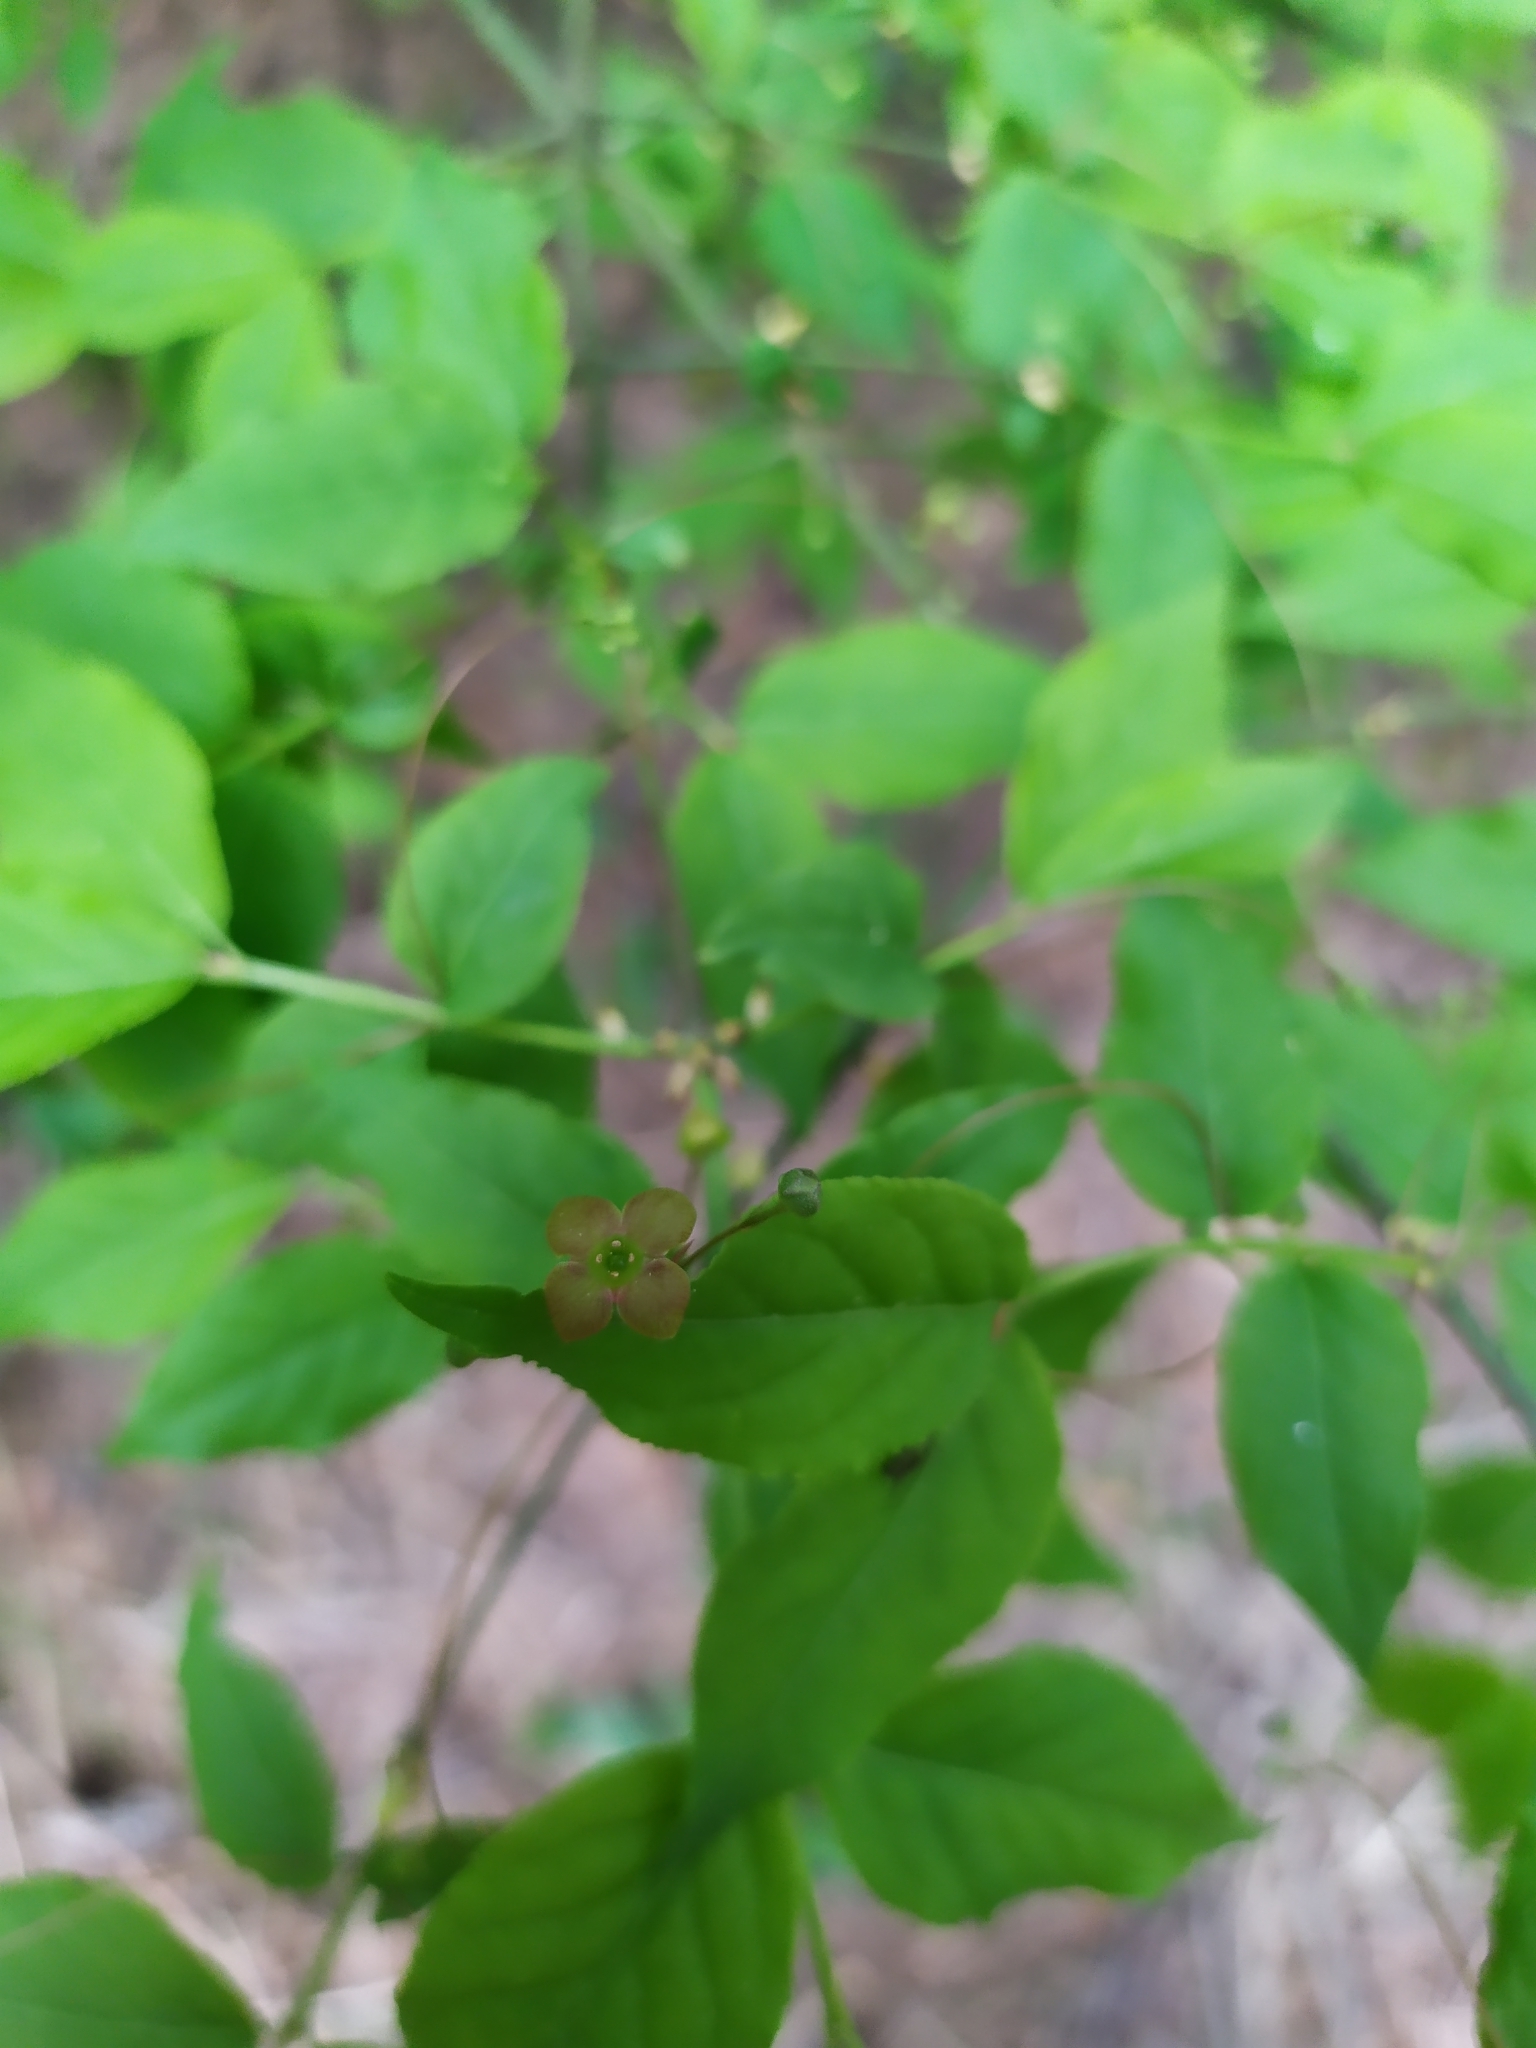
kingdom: Plantae
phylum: Tracheophyta
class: Magnoliopsida
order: Celastrales
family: Celastraceae
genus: Euonymus
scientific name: Euonymus verrucosus
